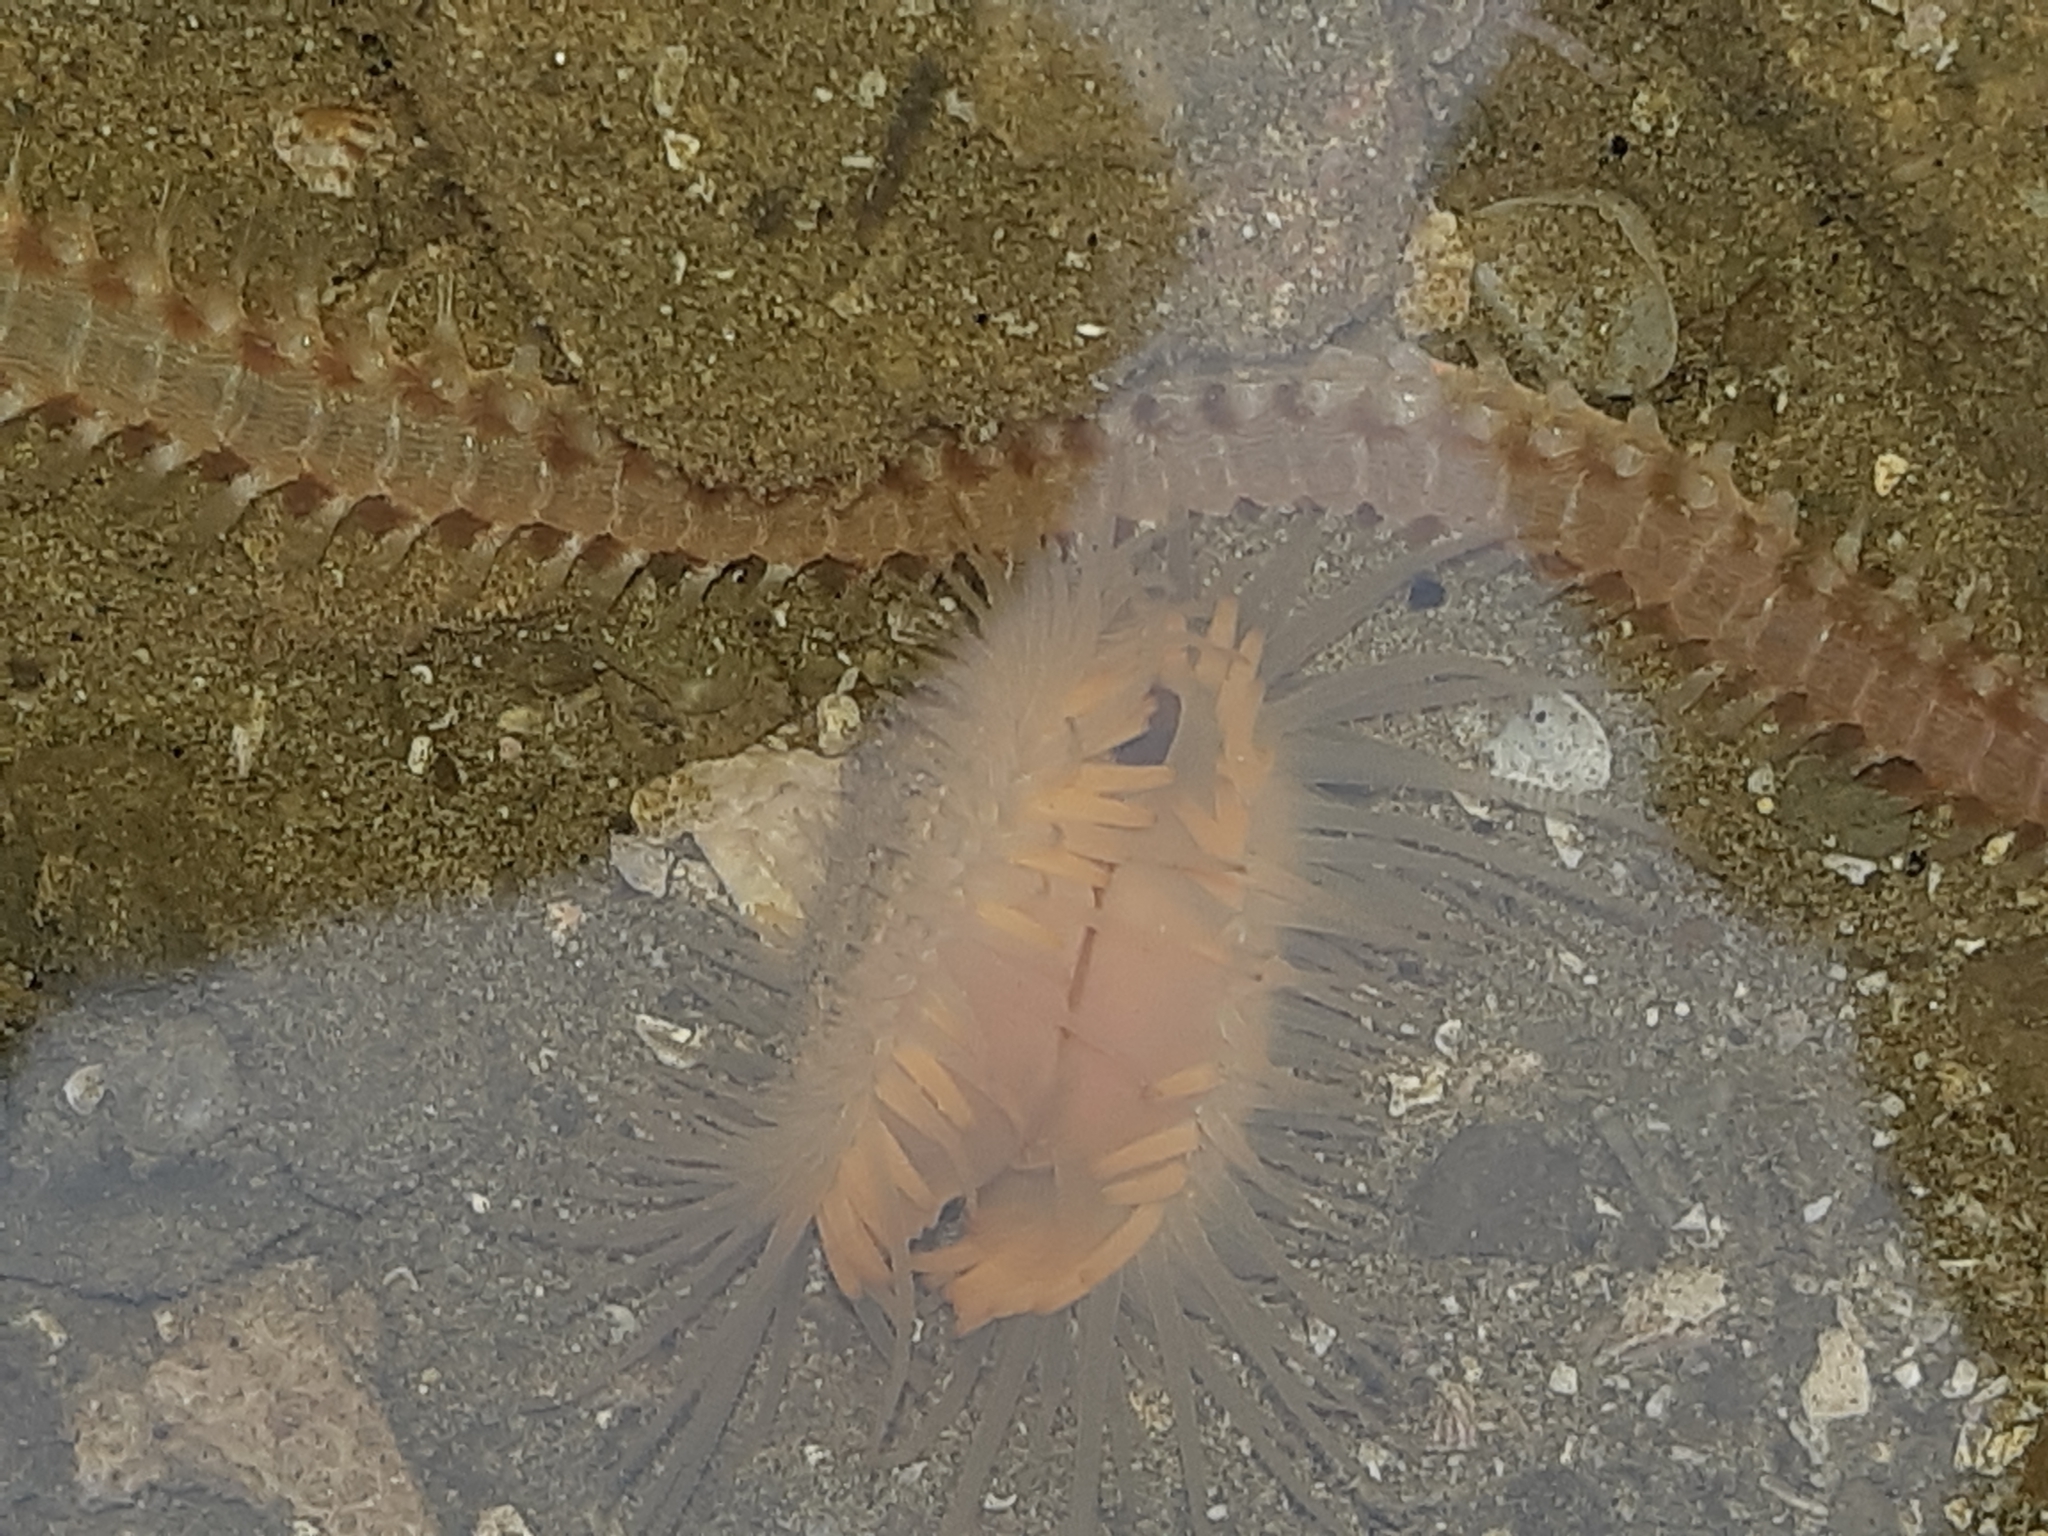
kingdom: Animalia
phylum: Mollusca
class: Bivalvia
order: Limida
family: Limidae
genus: Limaria
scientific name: Limaria pacifica
